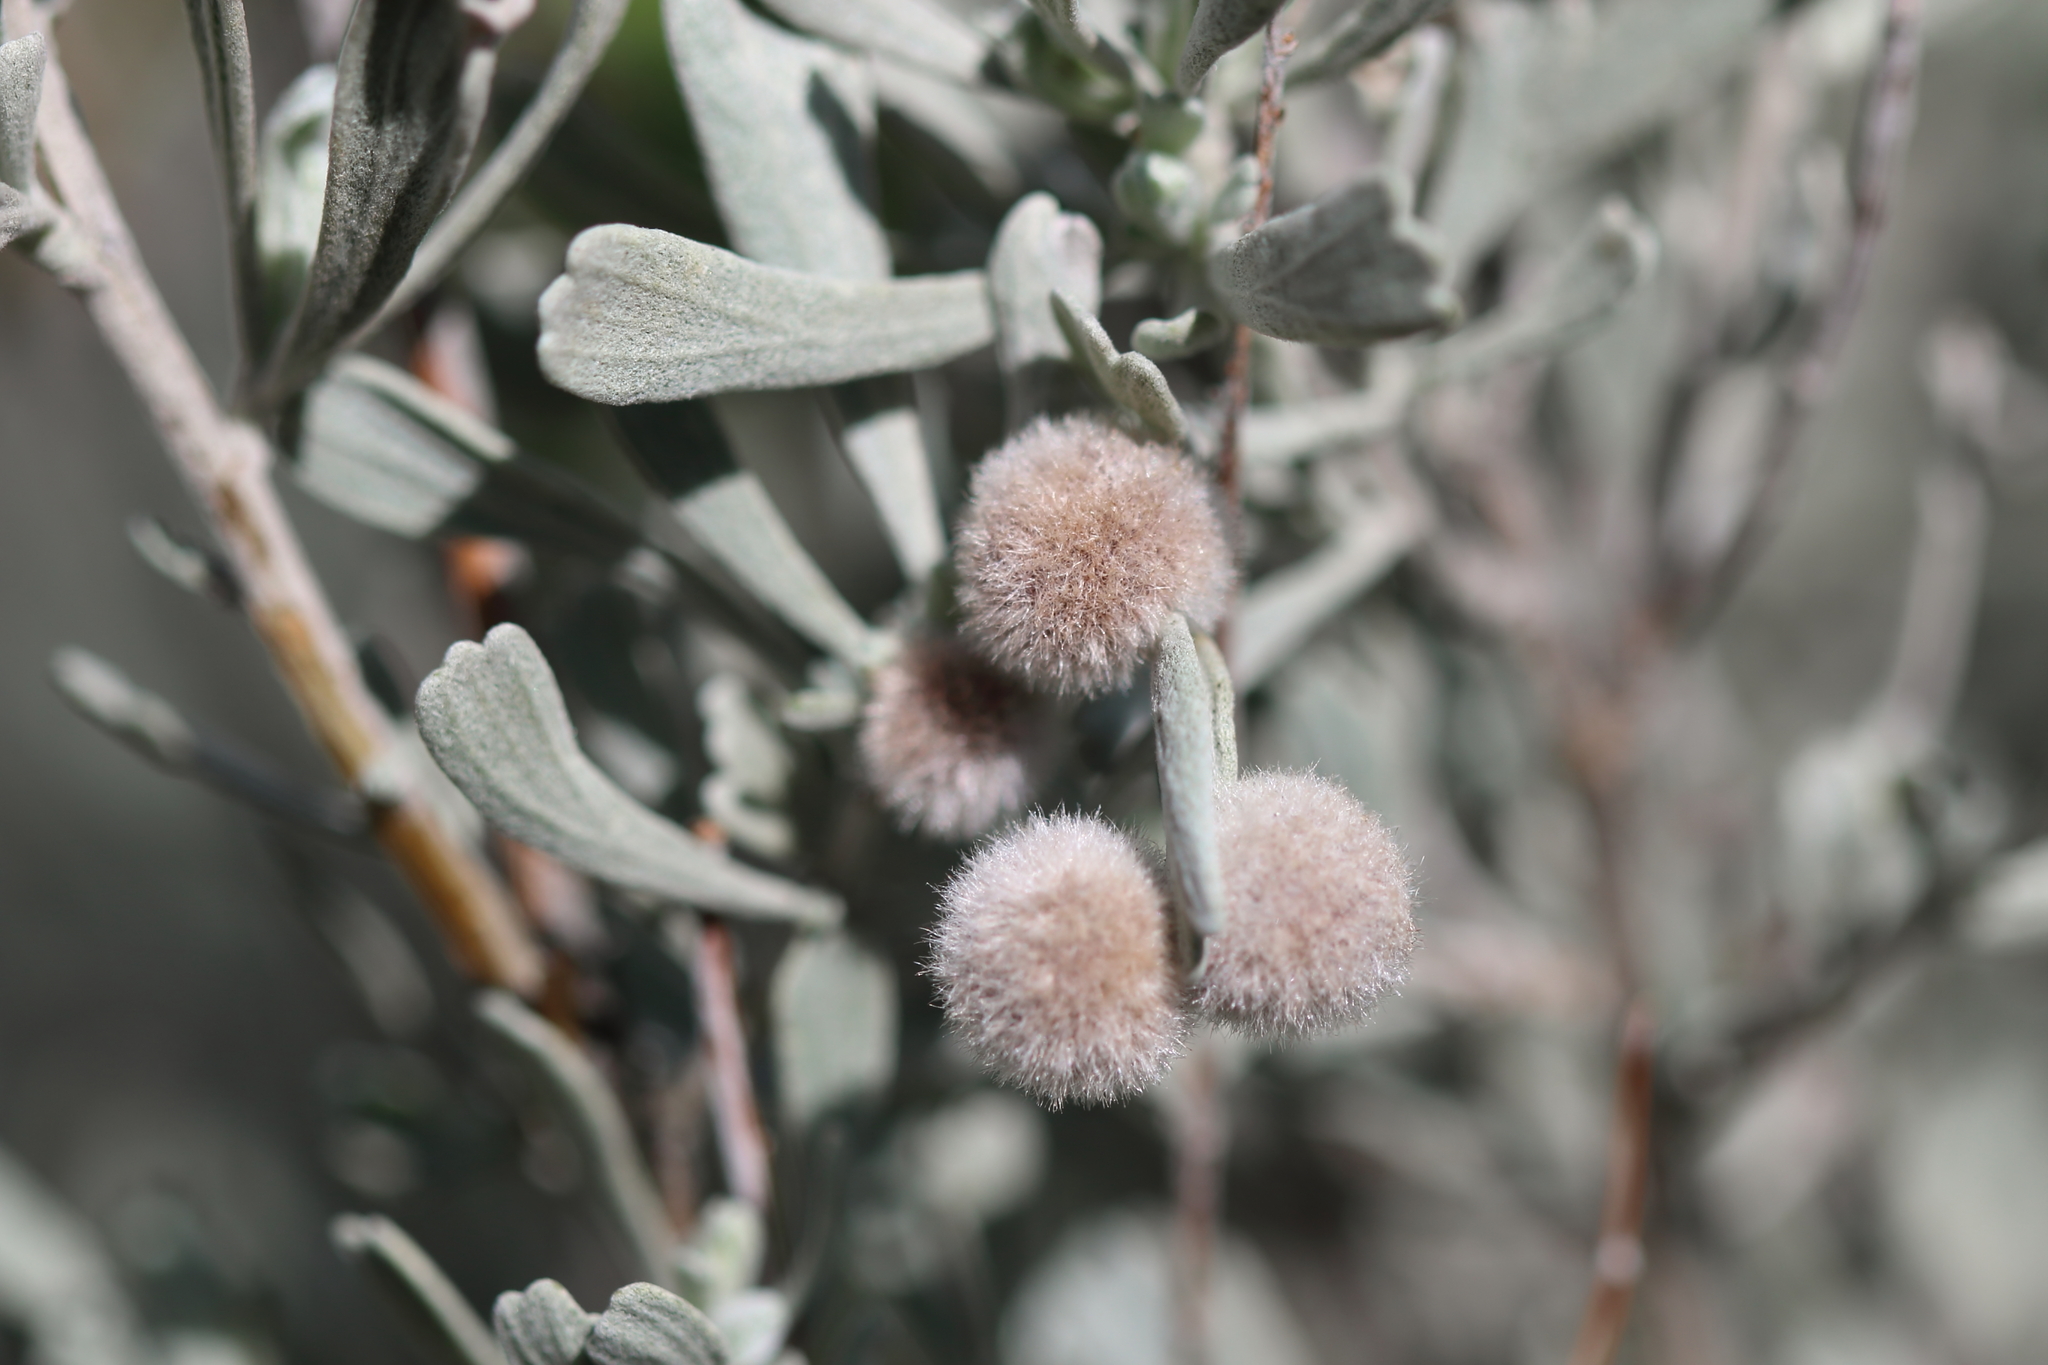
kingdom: Animalia
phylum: Arthropoda
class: Insecta
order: Diptera
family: Cecidomyiidae
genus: Rhopalomyia
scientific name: Rhopalomyia hirtipomum
